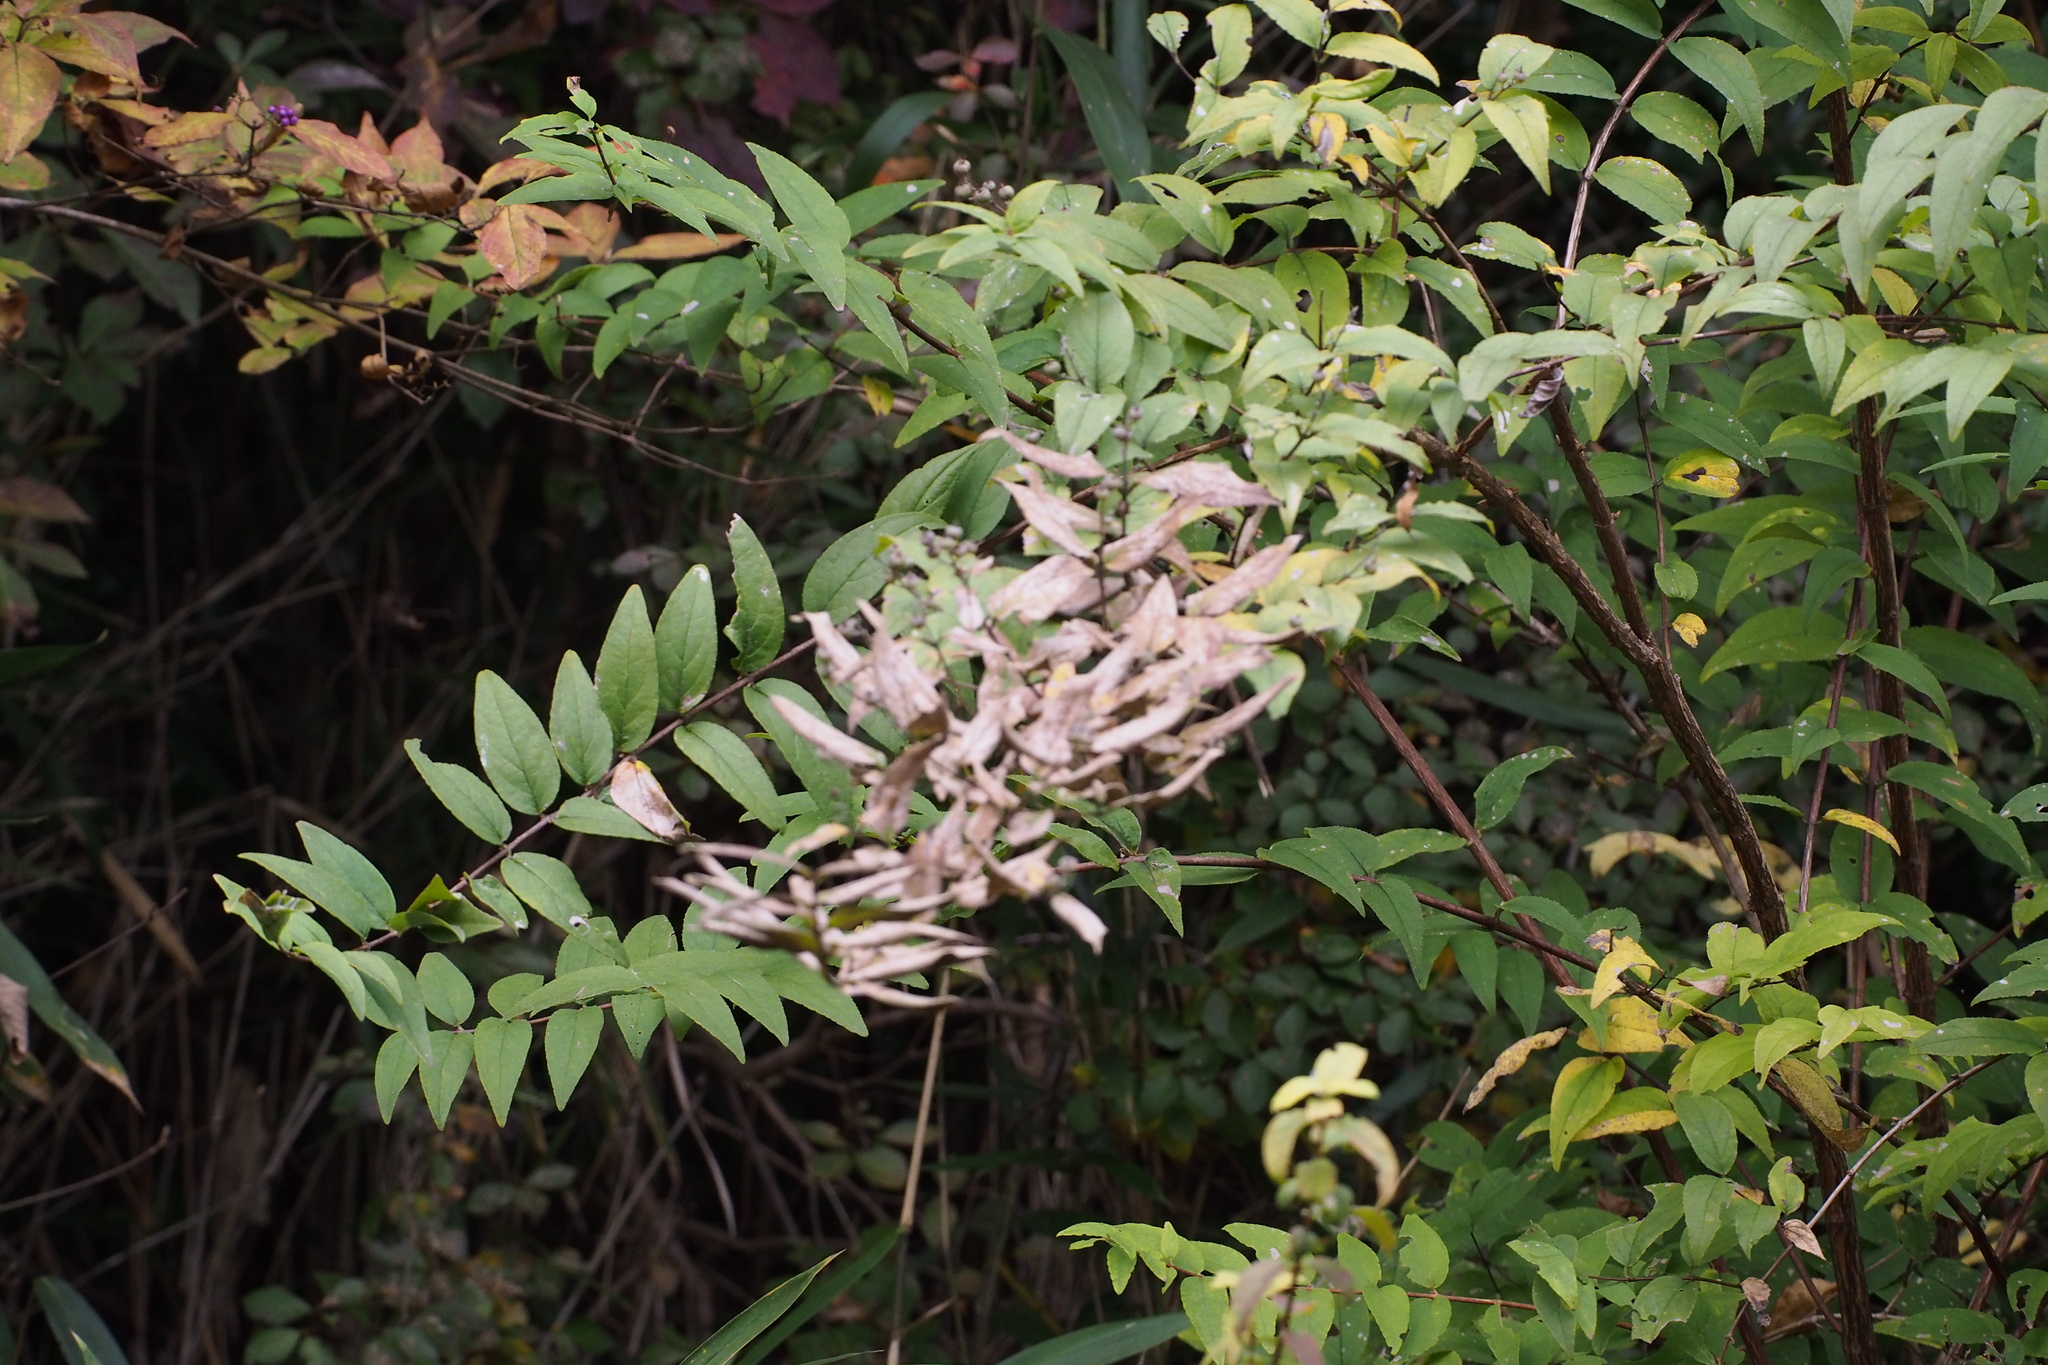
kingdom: Plantae
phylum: Tracheophyta
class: Magnoliopsida
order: Cornales
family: Hydrangeaceae
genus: Deutzia
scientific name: Deutzia crenata
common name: Deutzia
